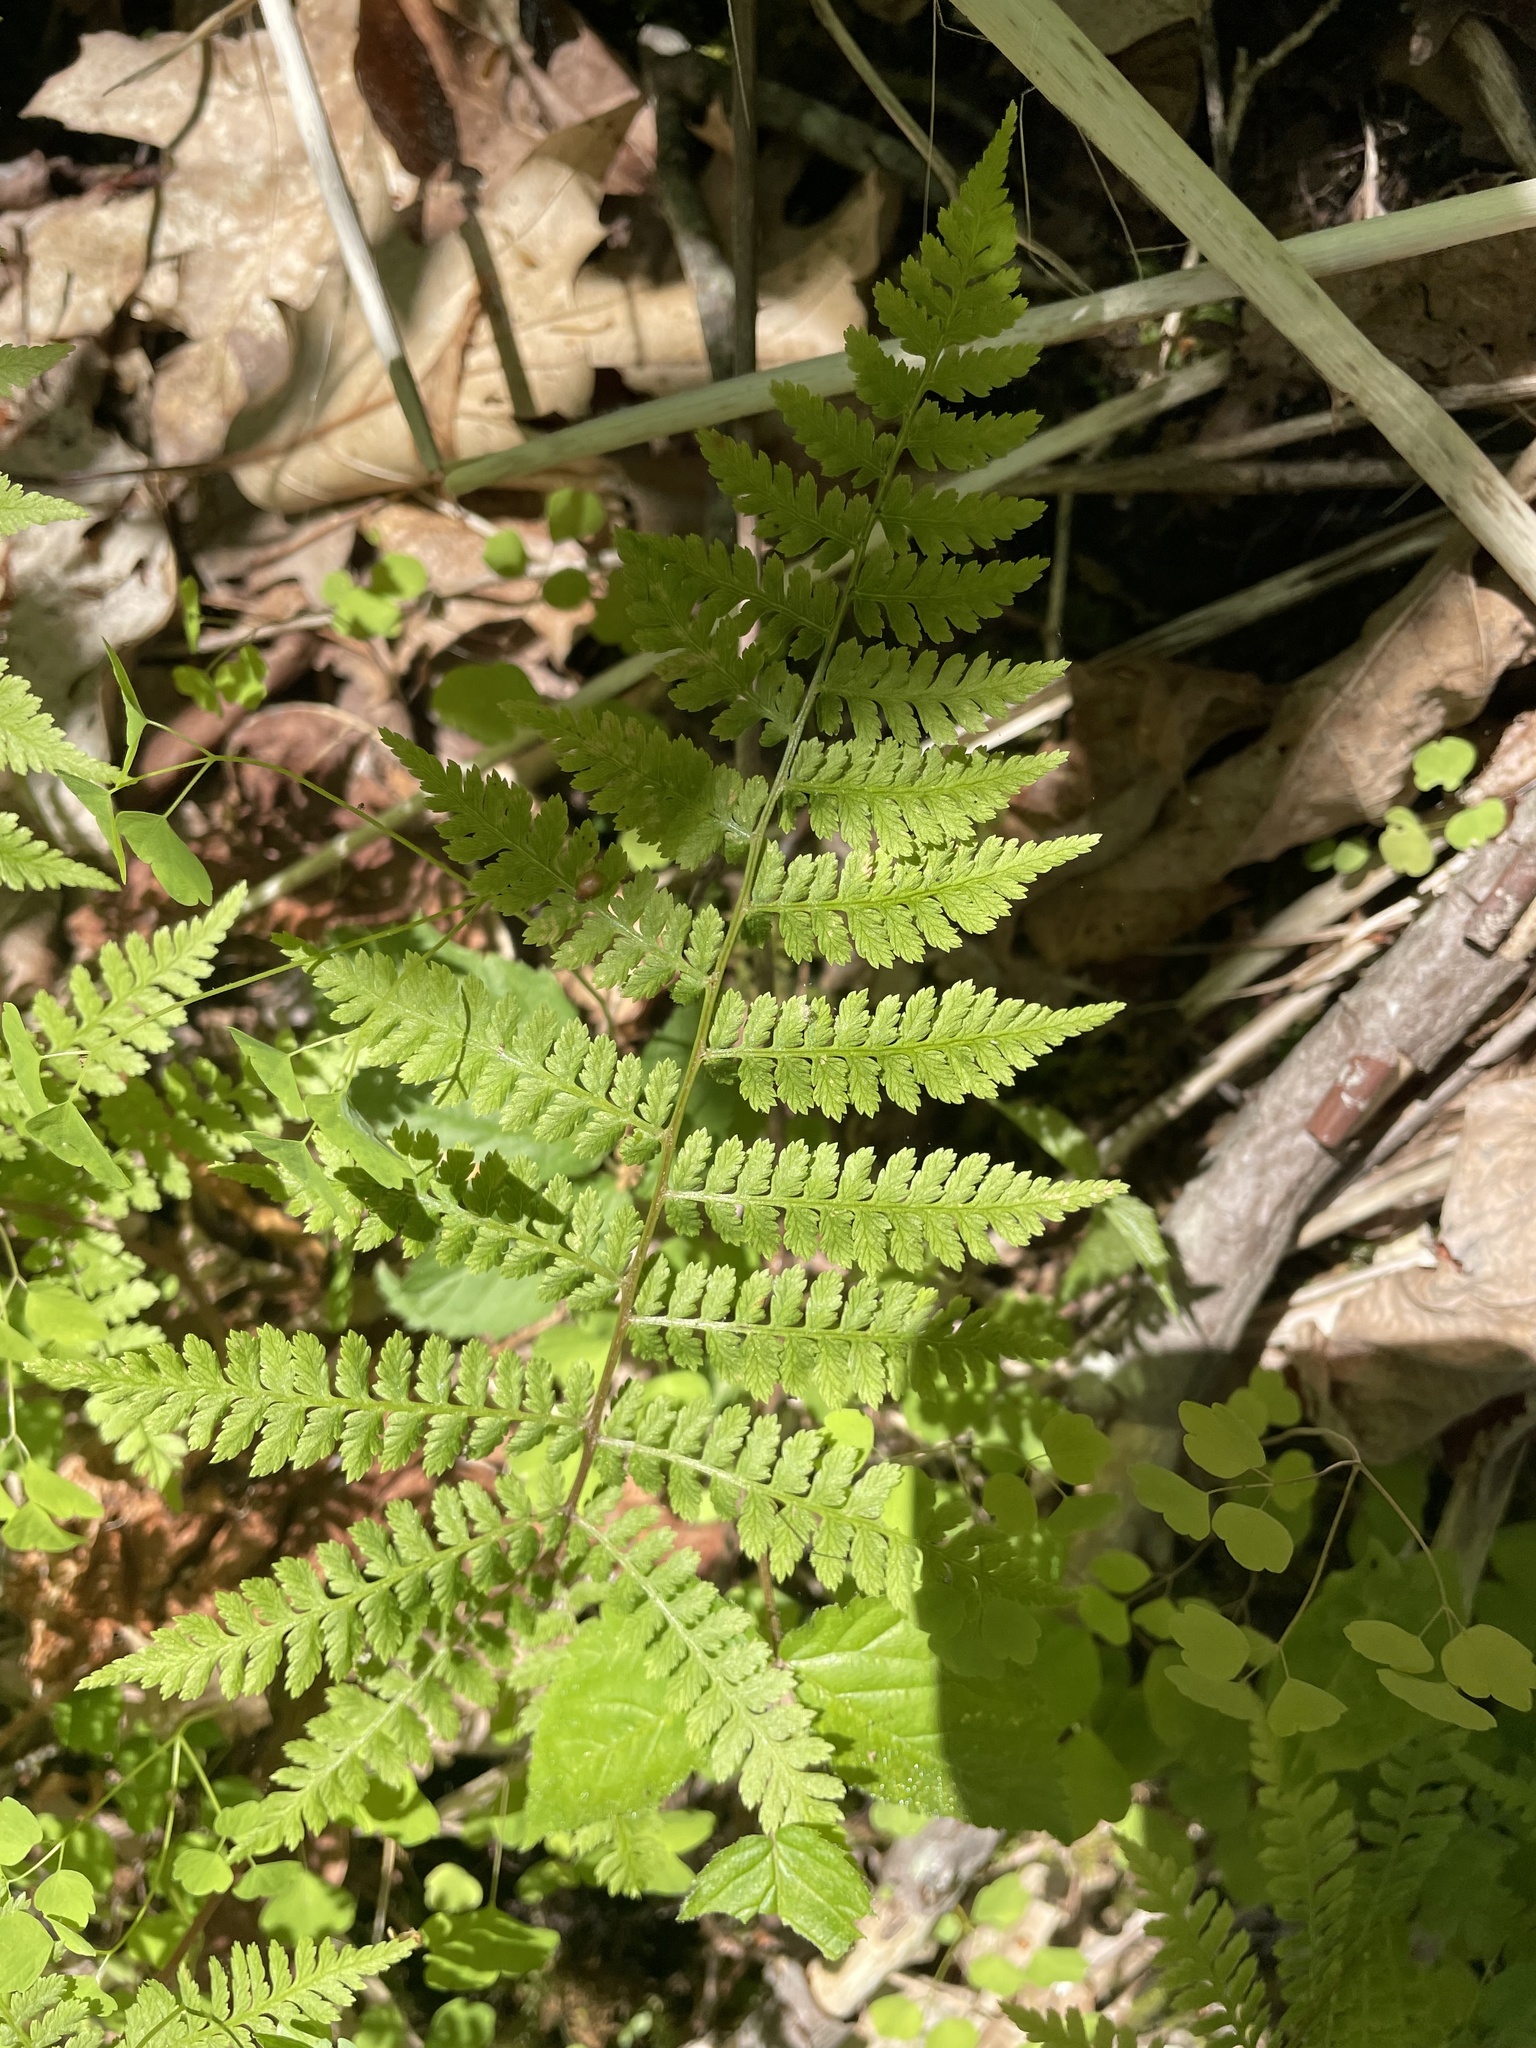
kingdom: Plantae
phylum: Tracheophyta
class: Polypodiopsida
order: Polypodiales
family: Athyriaceae
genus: Athyrium
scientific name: Athyrium asplenioides
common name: Southern lady fern
